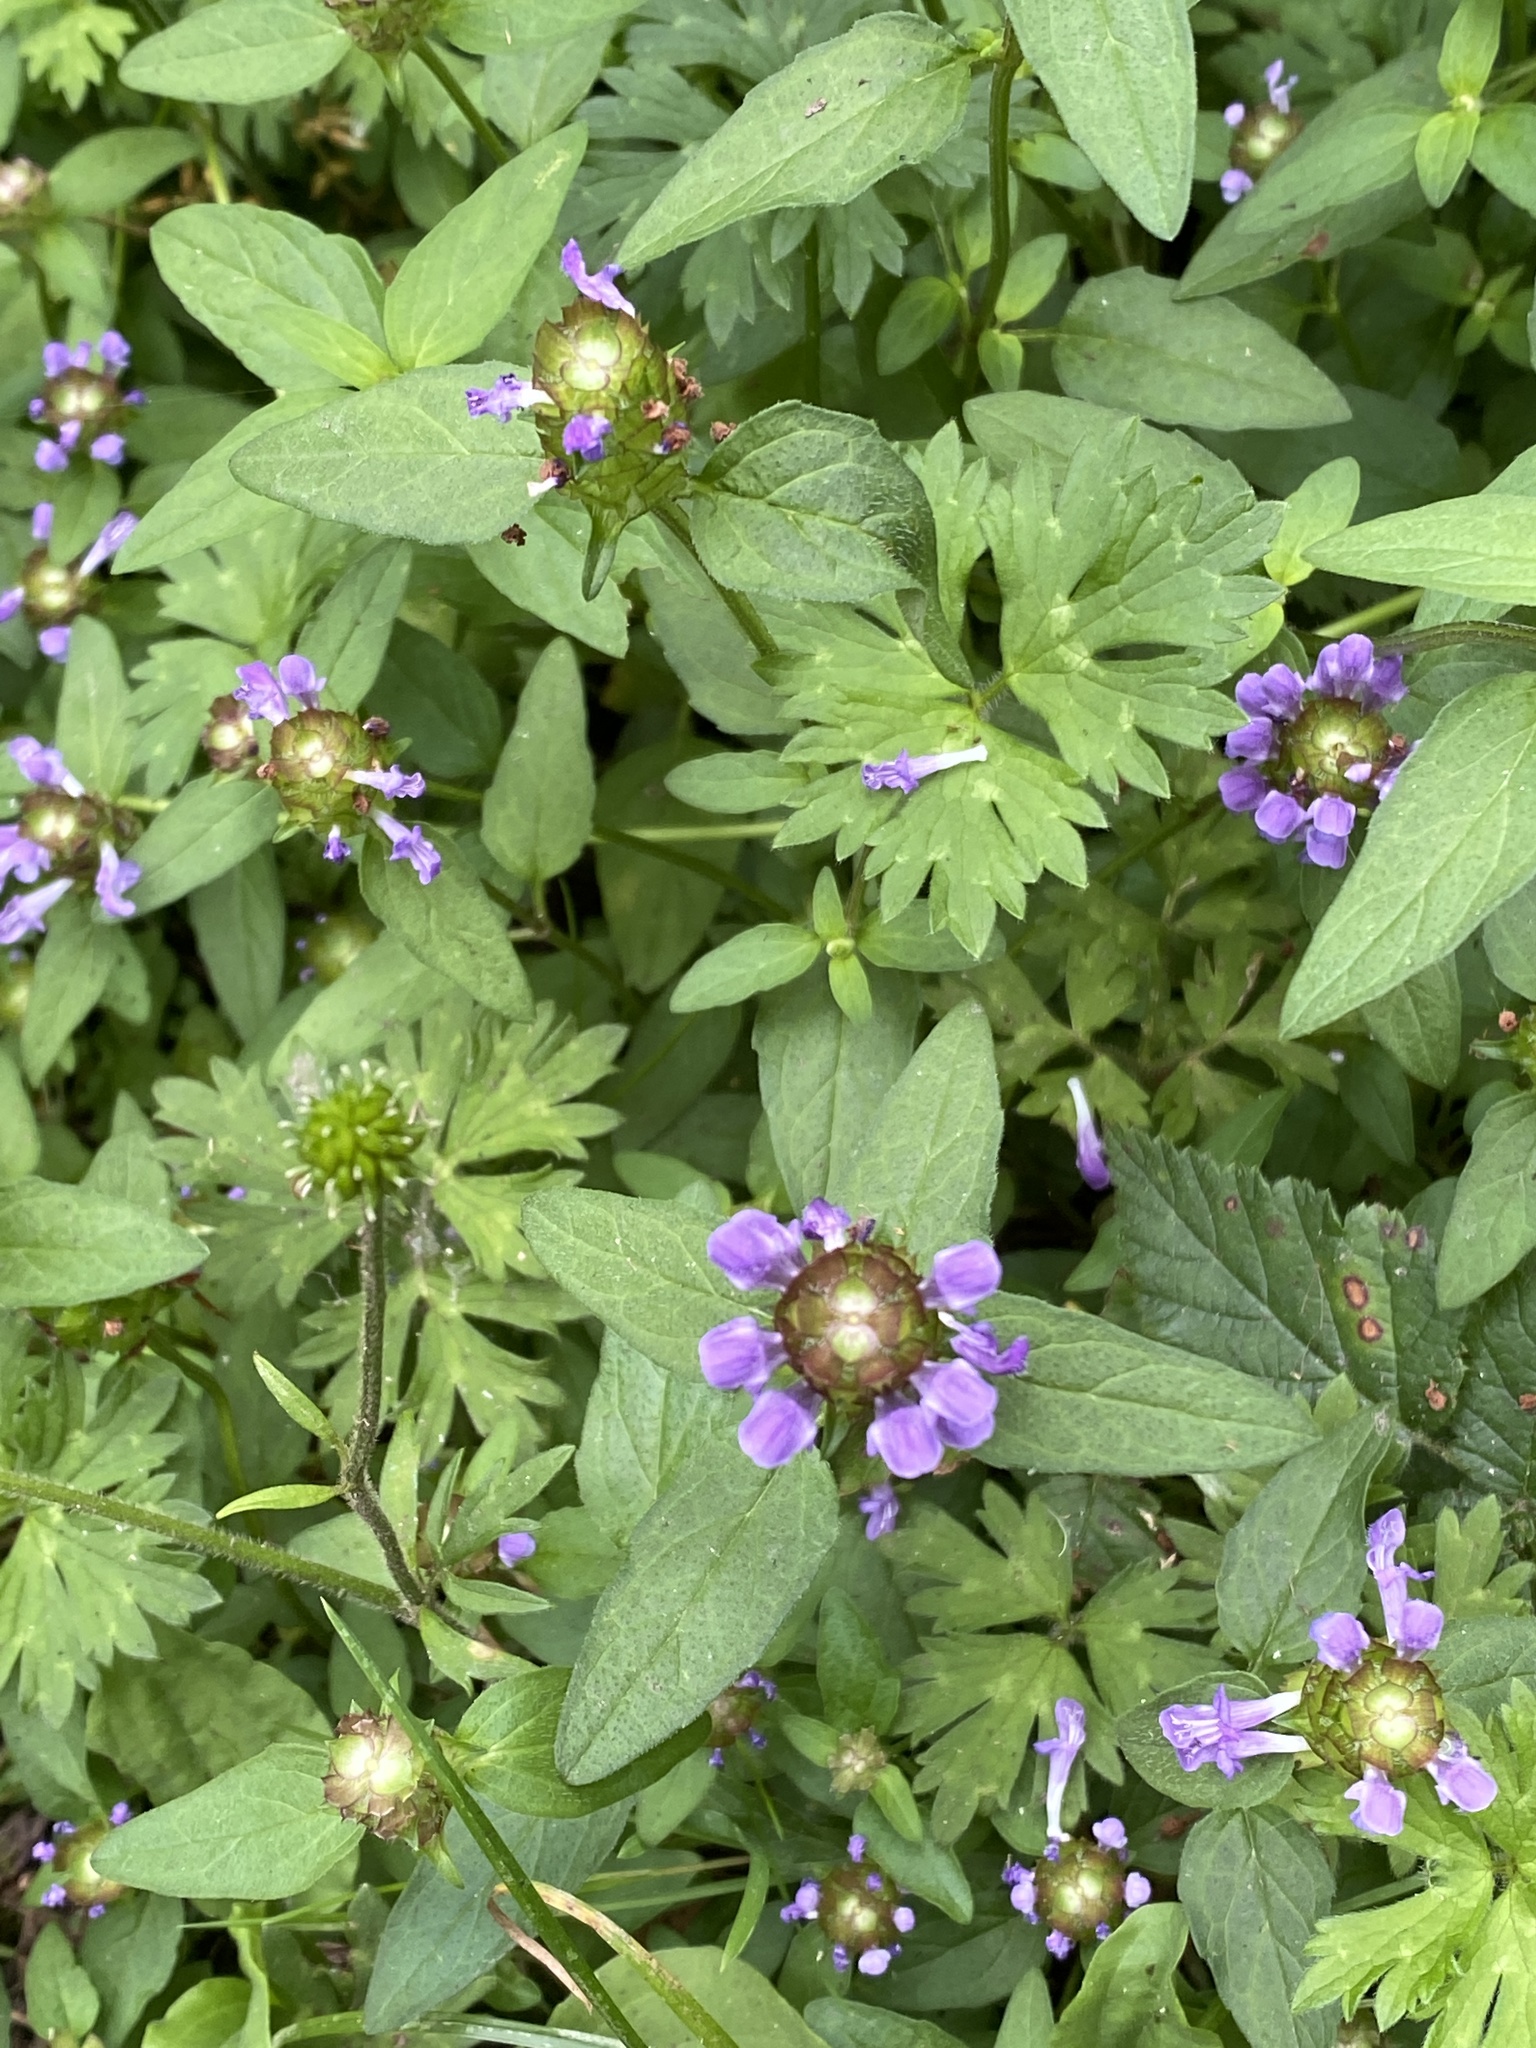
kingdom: Plantae
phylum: Tracheophyta
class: Magnoliopsida
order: Lamiales
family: Lamiaceae
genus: Prunella
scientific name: Prunella vulgaris
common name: Heal-all
